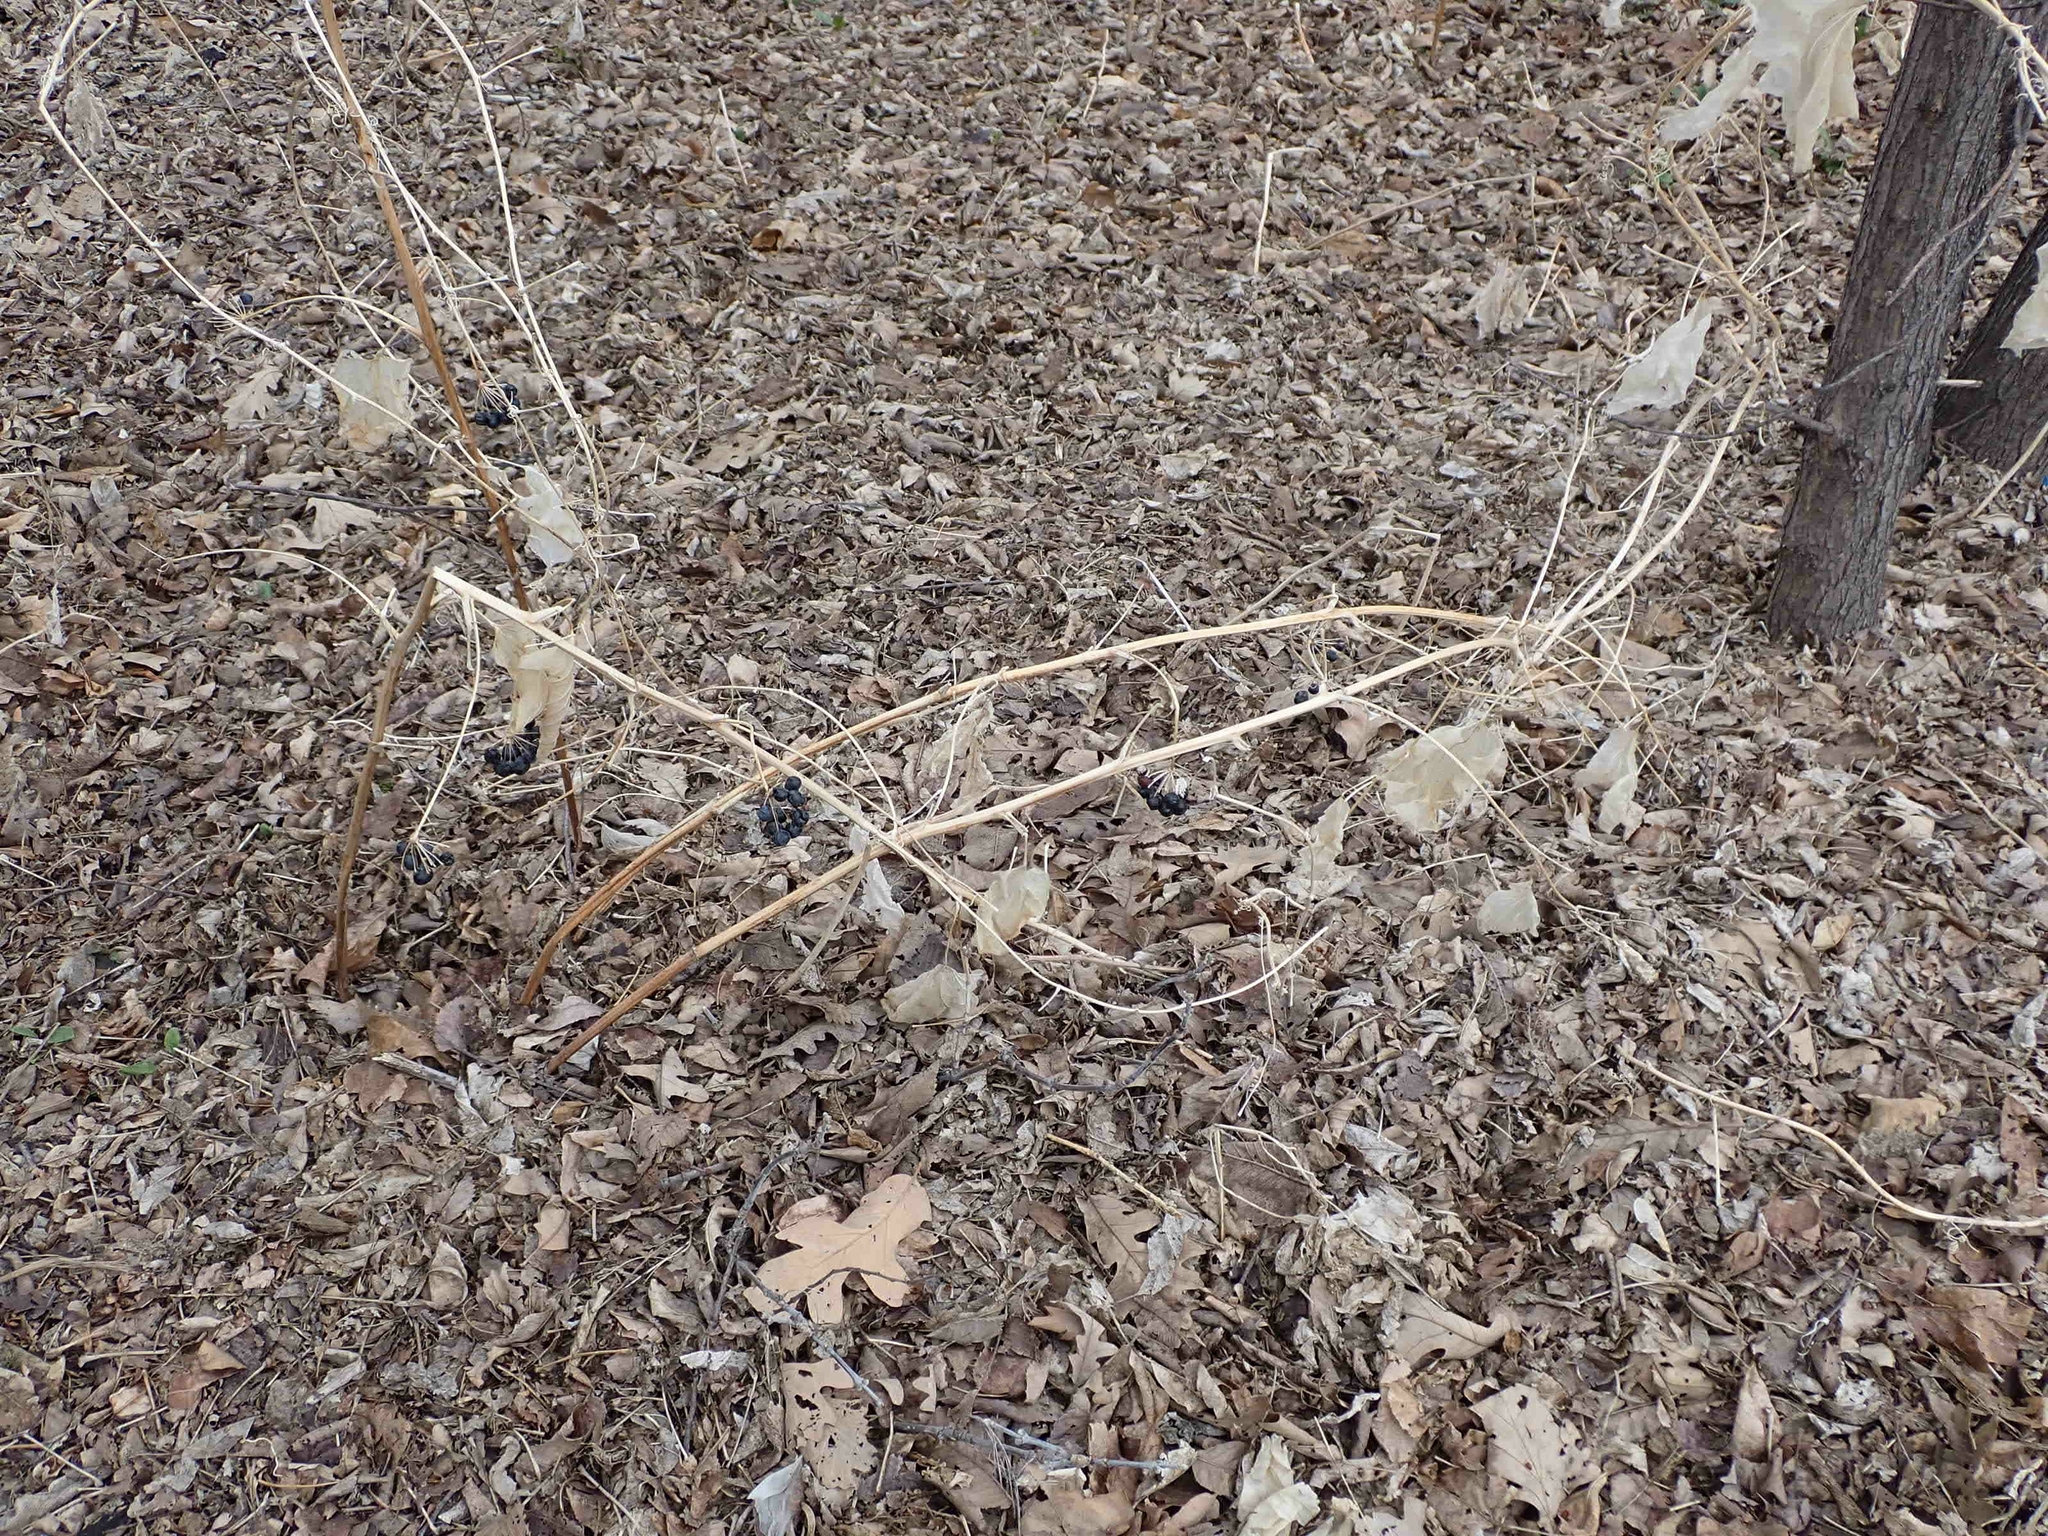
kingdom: Plantae
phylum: Tracheophyta
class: Liliopsida
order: Liliales
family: Smilacaceae
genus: Smilax
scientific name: Smilax lasioneura
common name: Blue ridge carrionflower
